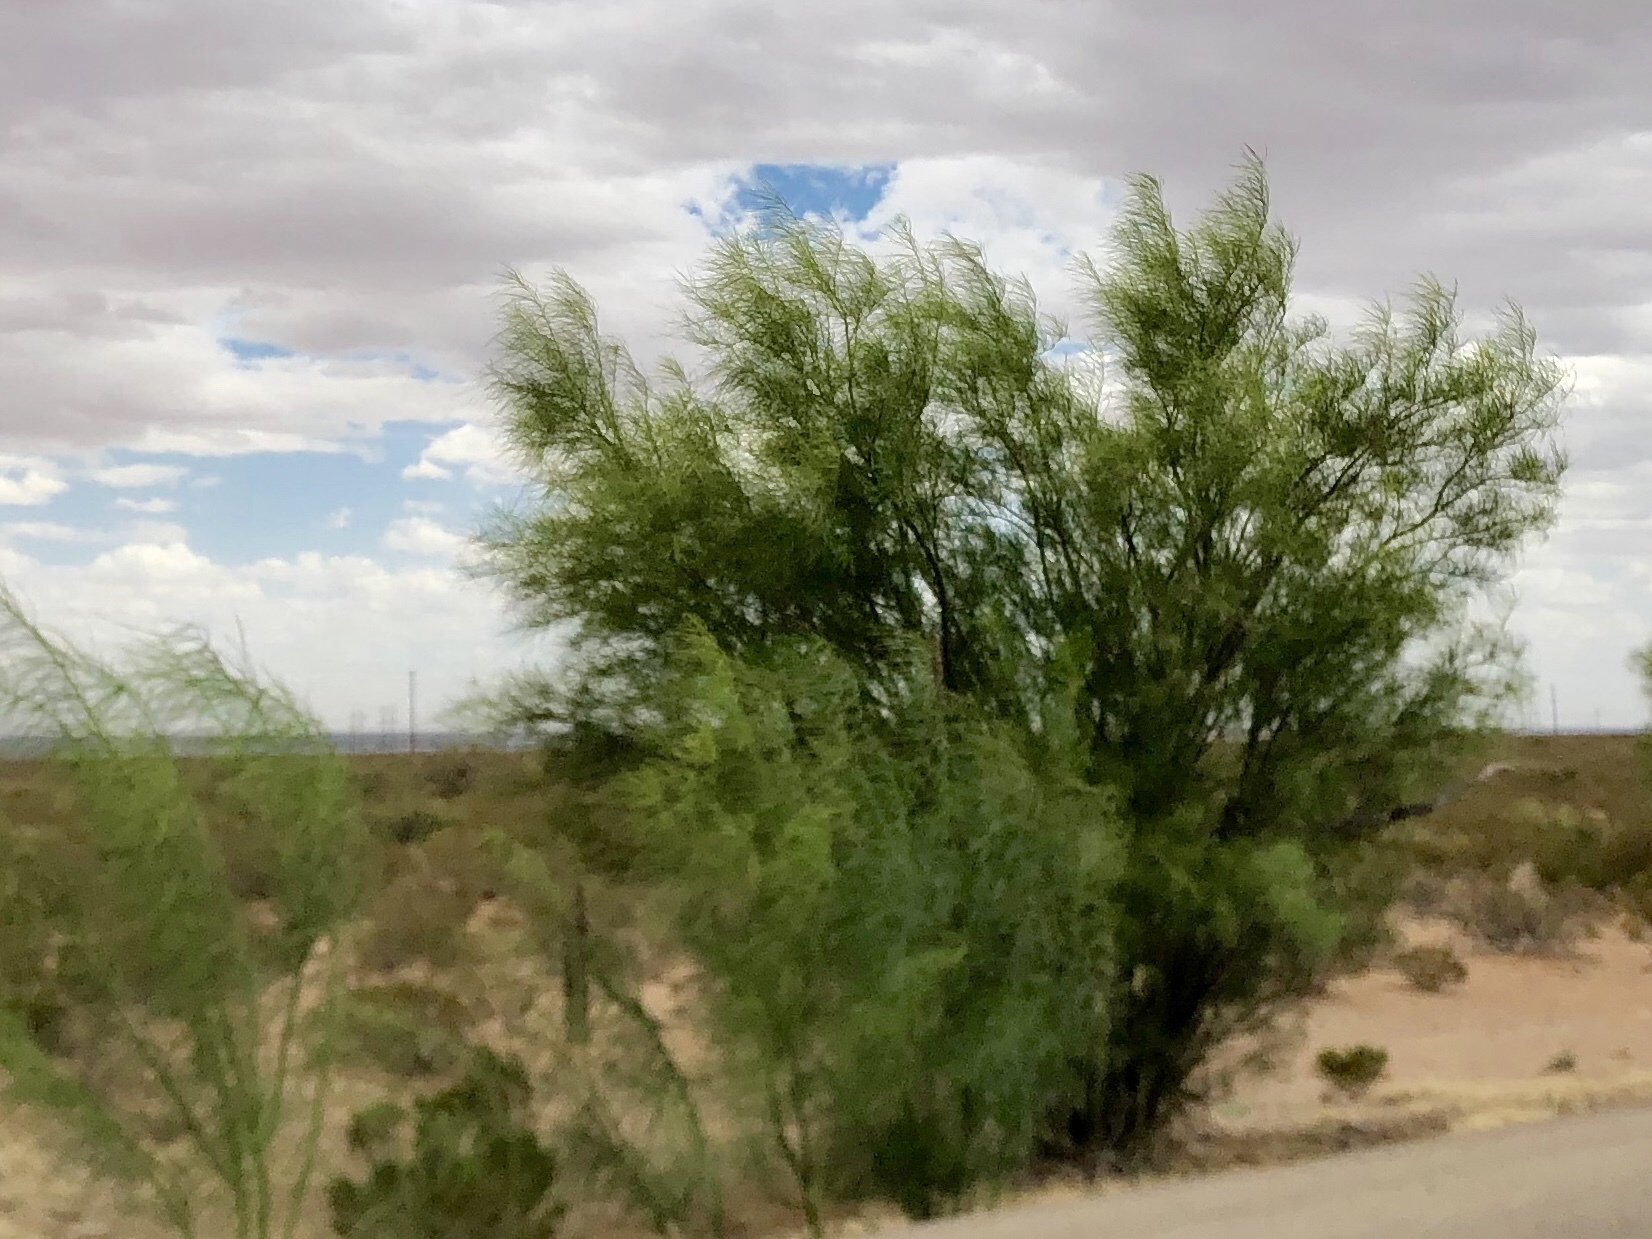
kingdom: Plantae
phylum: Tracheophyta
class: Magnoliopsida
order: Fabales
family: Fabaceae
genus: Parkinsonia
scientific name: Parkinsonia aculeata
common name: Jerusalem thorn
